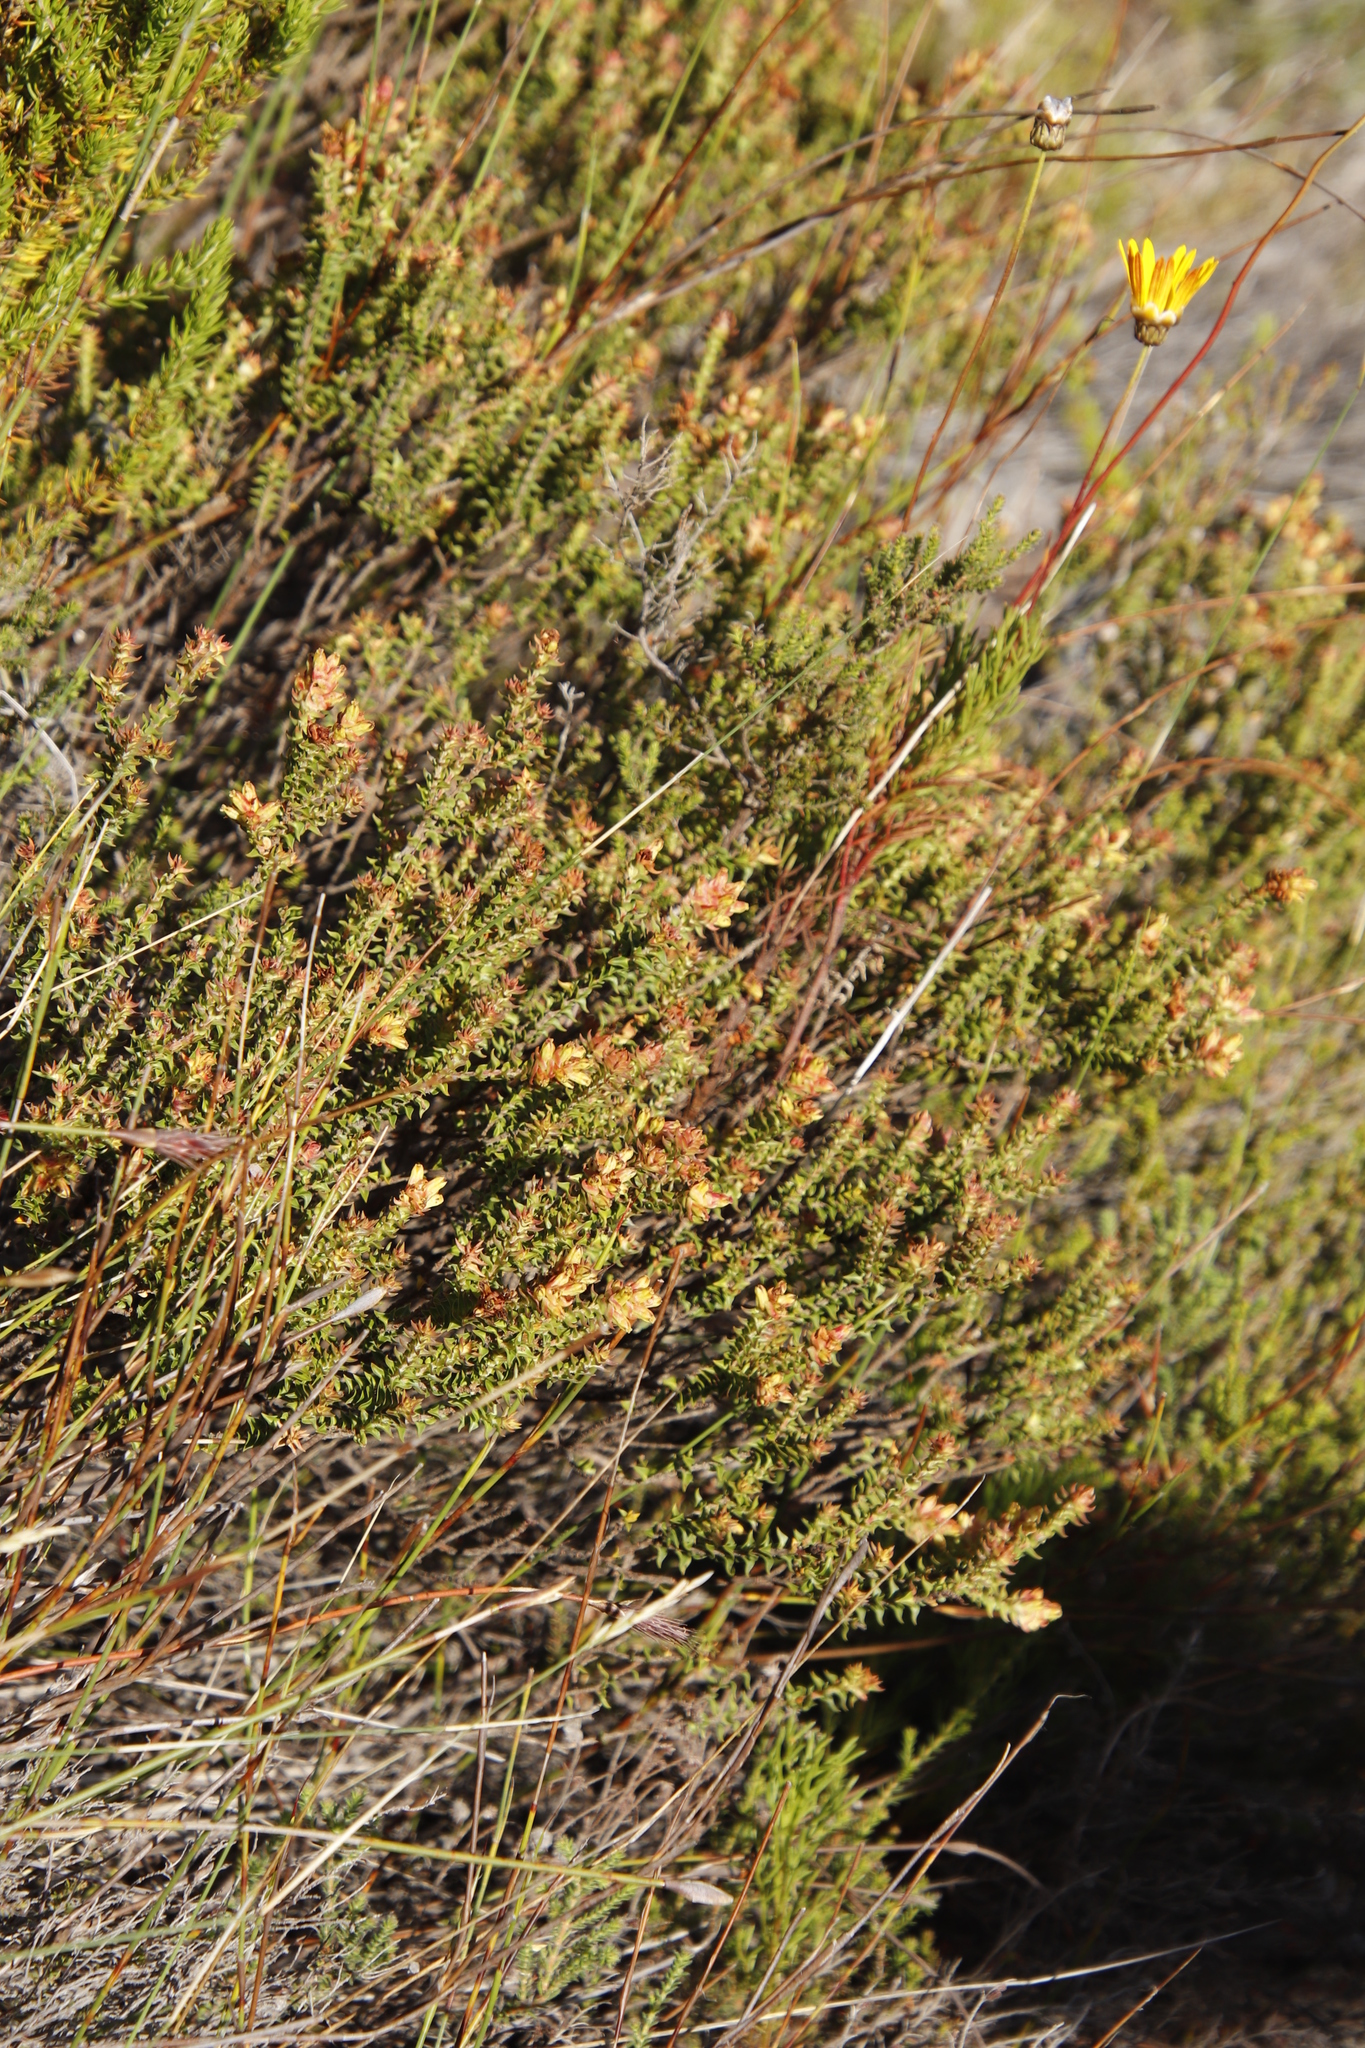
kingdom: Plantae
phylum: Tracheophyta
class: Magnoliopsida
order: Myrtales
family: Penaeaceae
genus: Penaea
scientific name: Penaea mucronata
